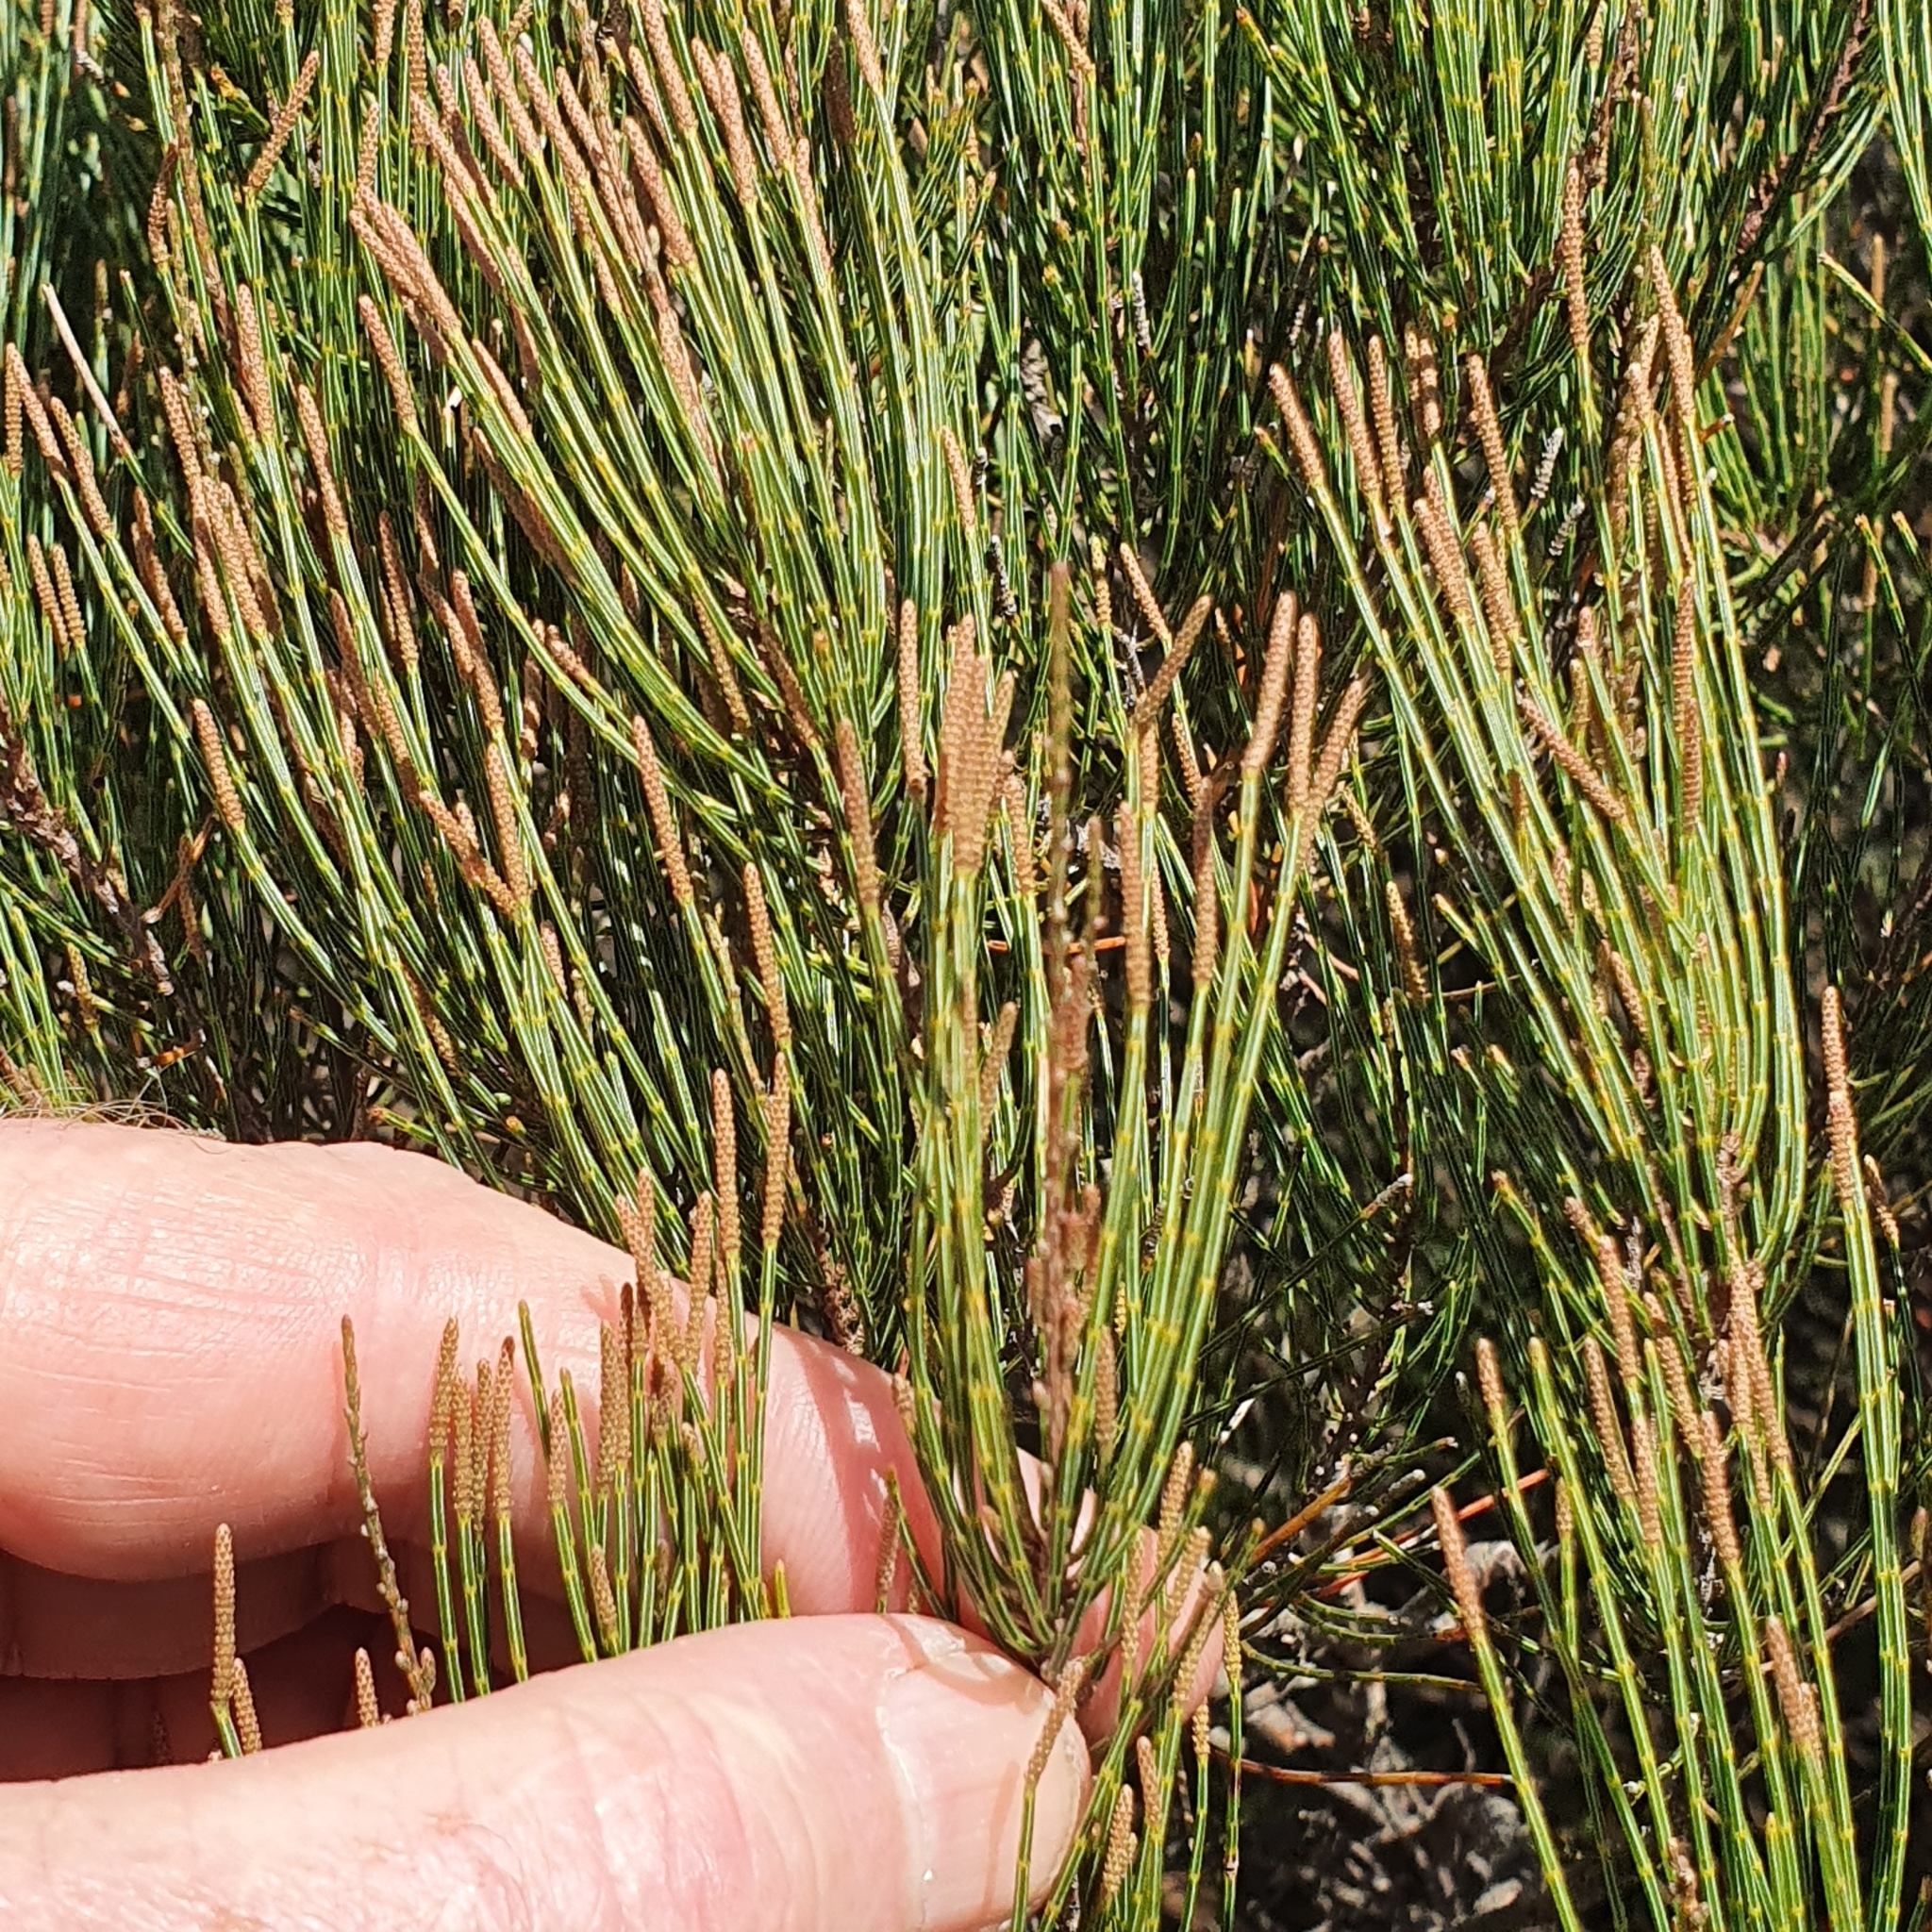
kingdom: Plantae
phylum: Tracheophyta
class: Magnoliopsida
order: Fagales
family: Casuarinaceae
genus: Allocasuarina
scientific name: Allocasuarina nana
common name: Stunted she-oak
